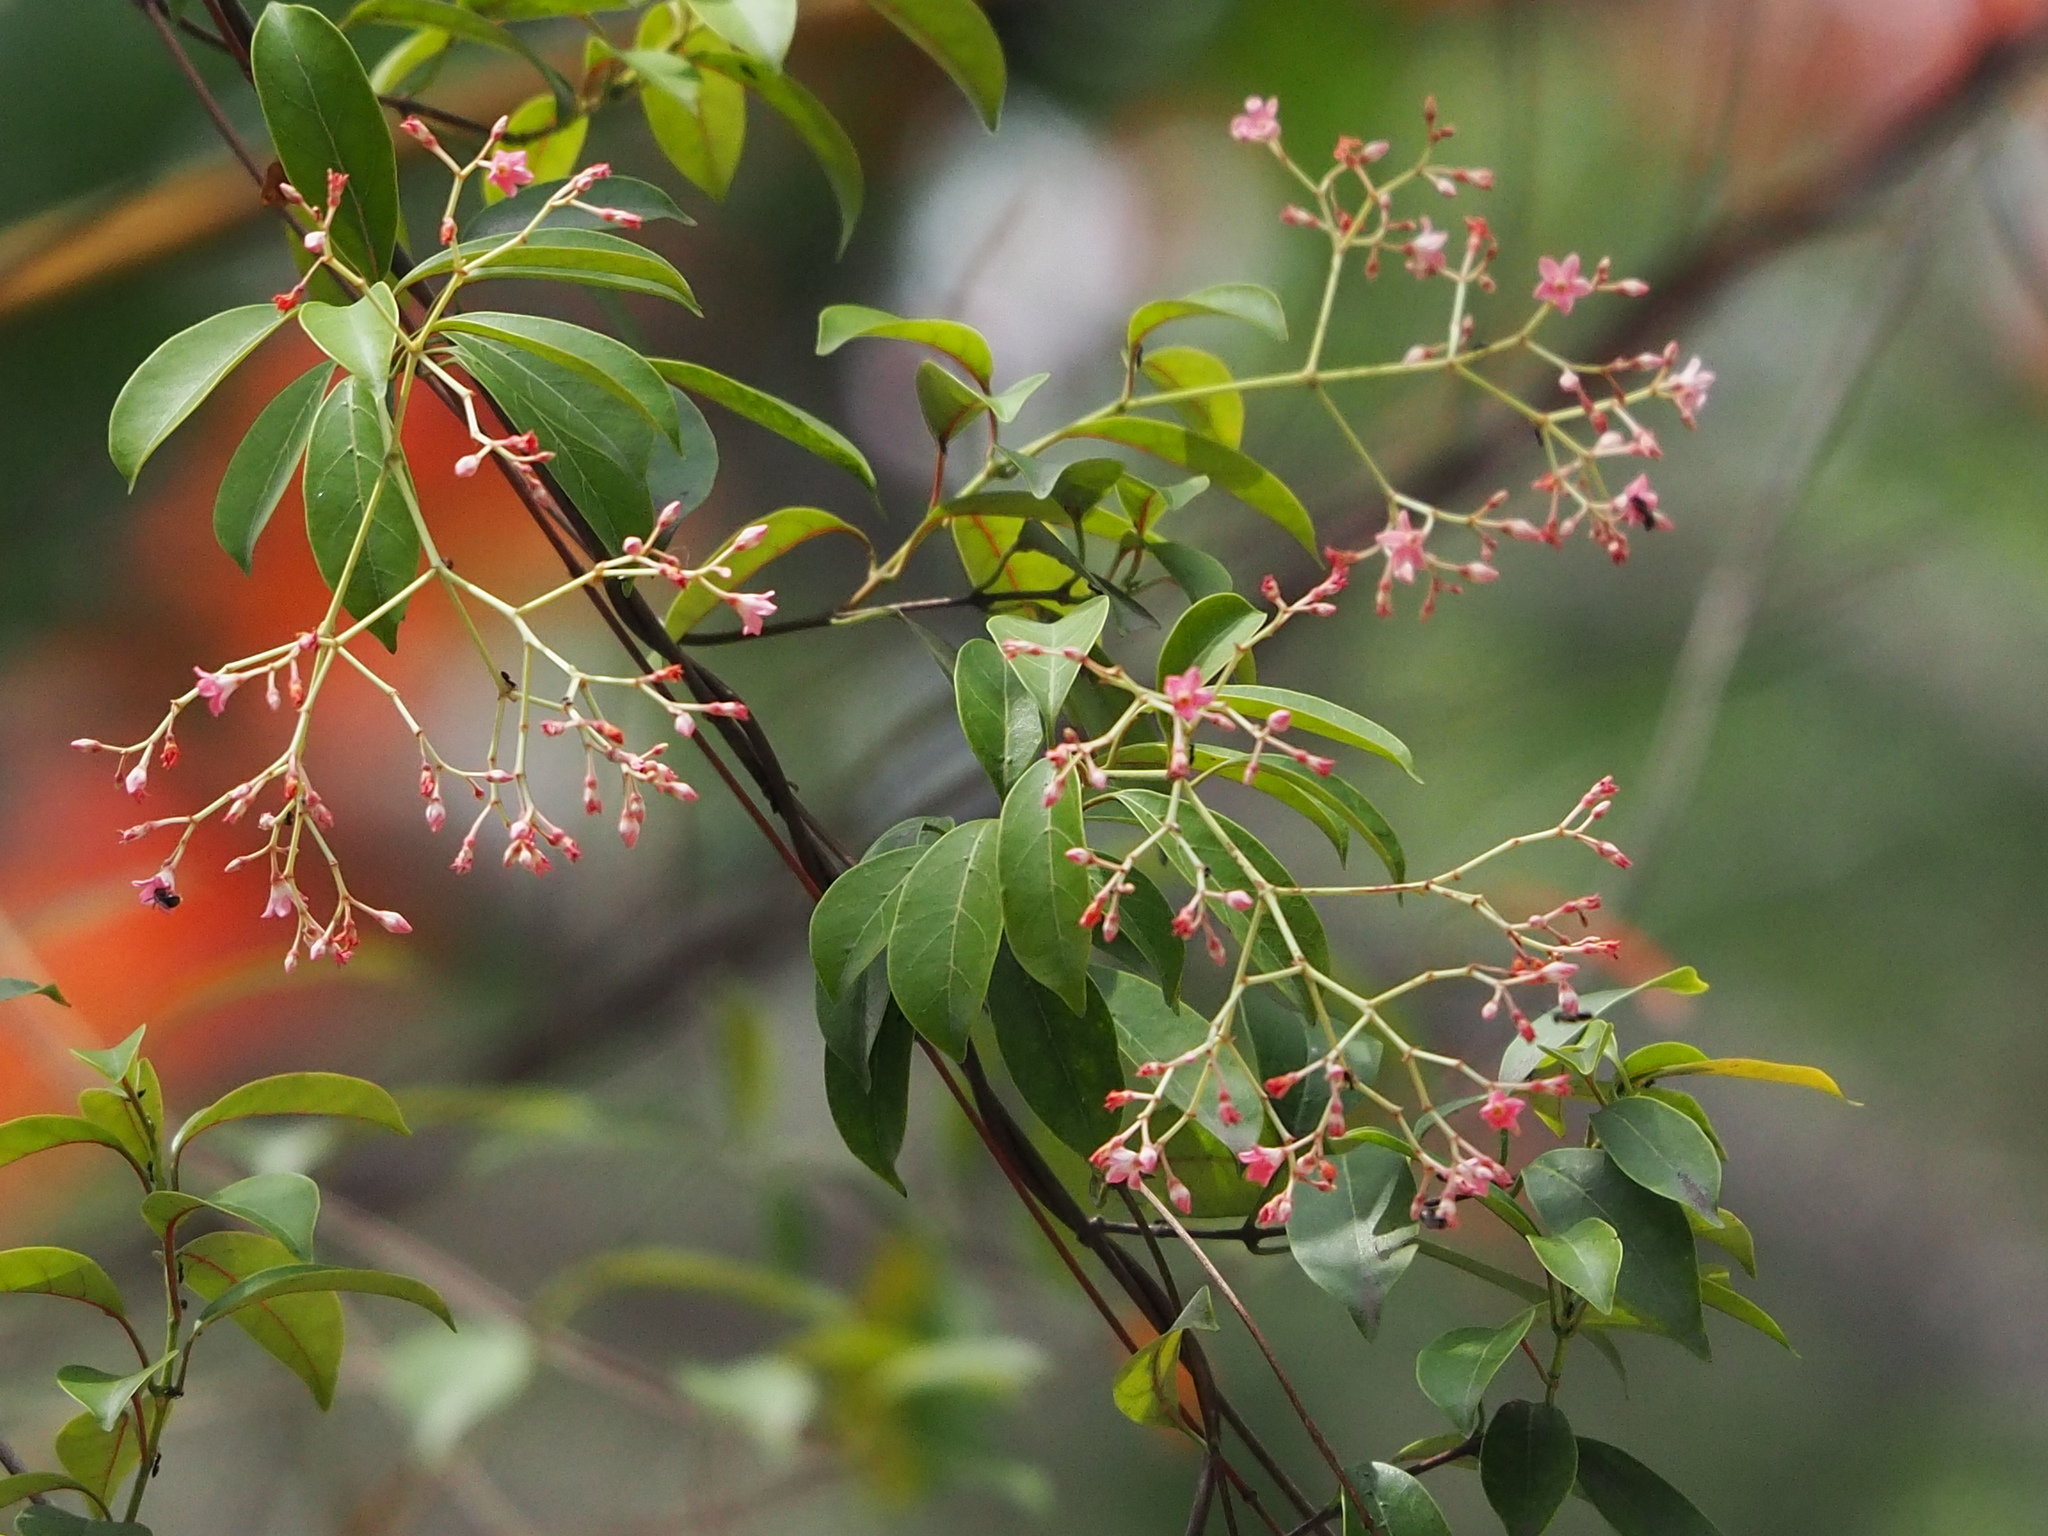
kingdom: Plantae
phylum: Tracheophyta
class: Magnoliopsida
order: Gentianales
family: Apocynaceae
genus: Urceola
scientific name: Urceola rosea
